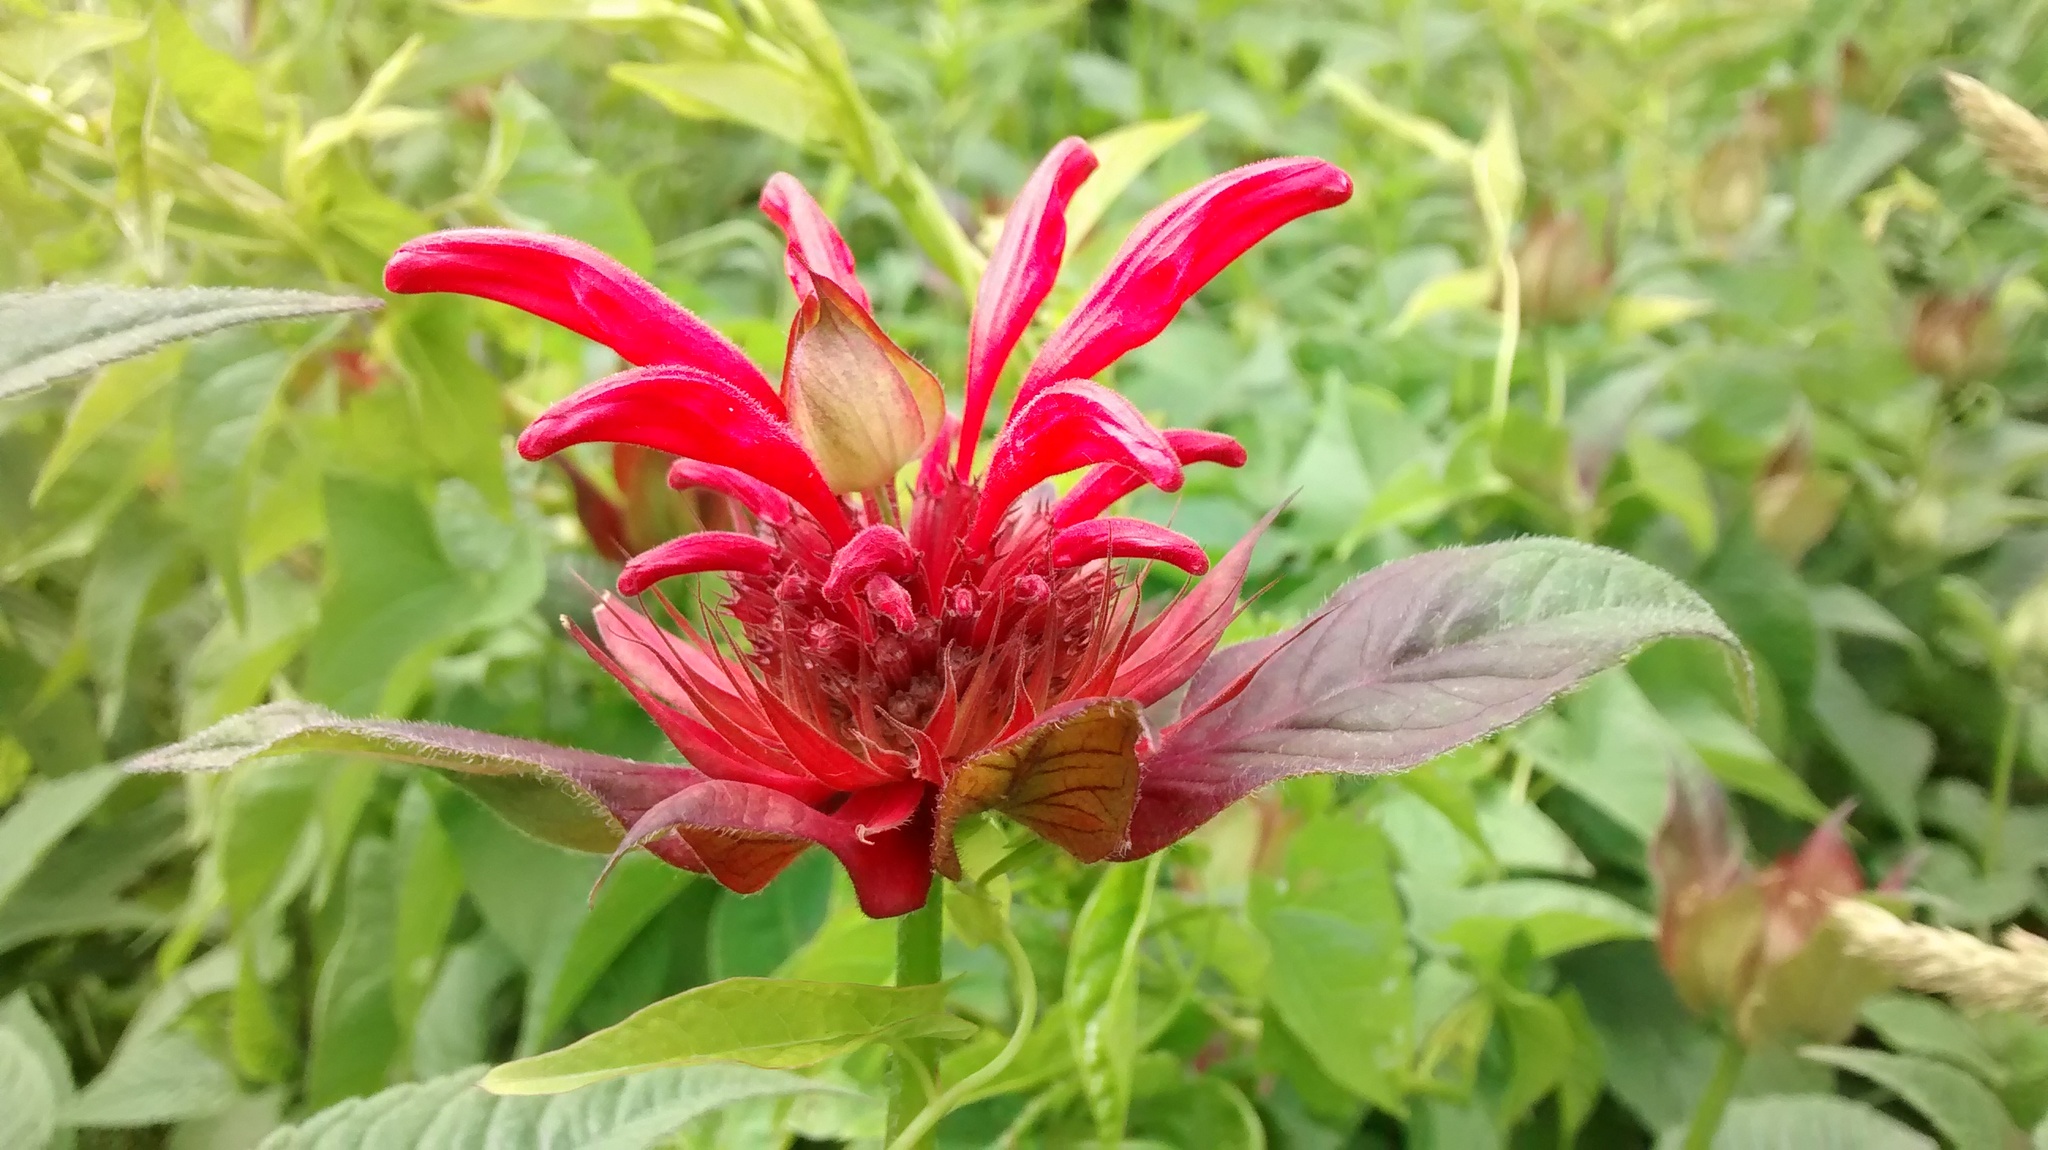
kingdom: Plantae
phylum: Tracheophyta
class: Magnoliopsida
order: Lamiales
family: Lamiaceae
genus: Monarda
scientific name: Monarda didyma
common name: Beebalm
